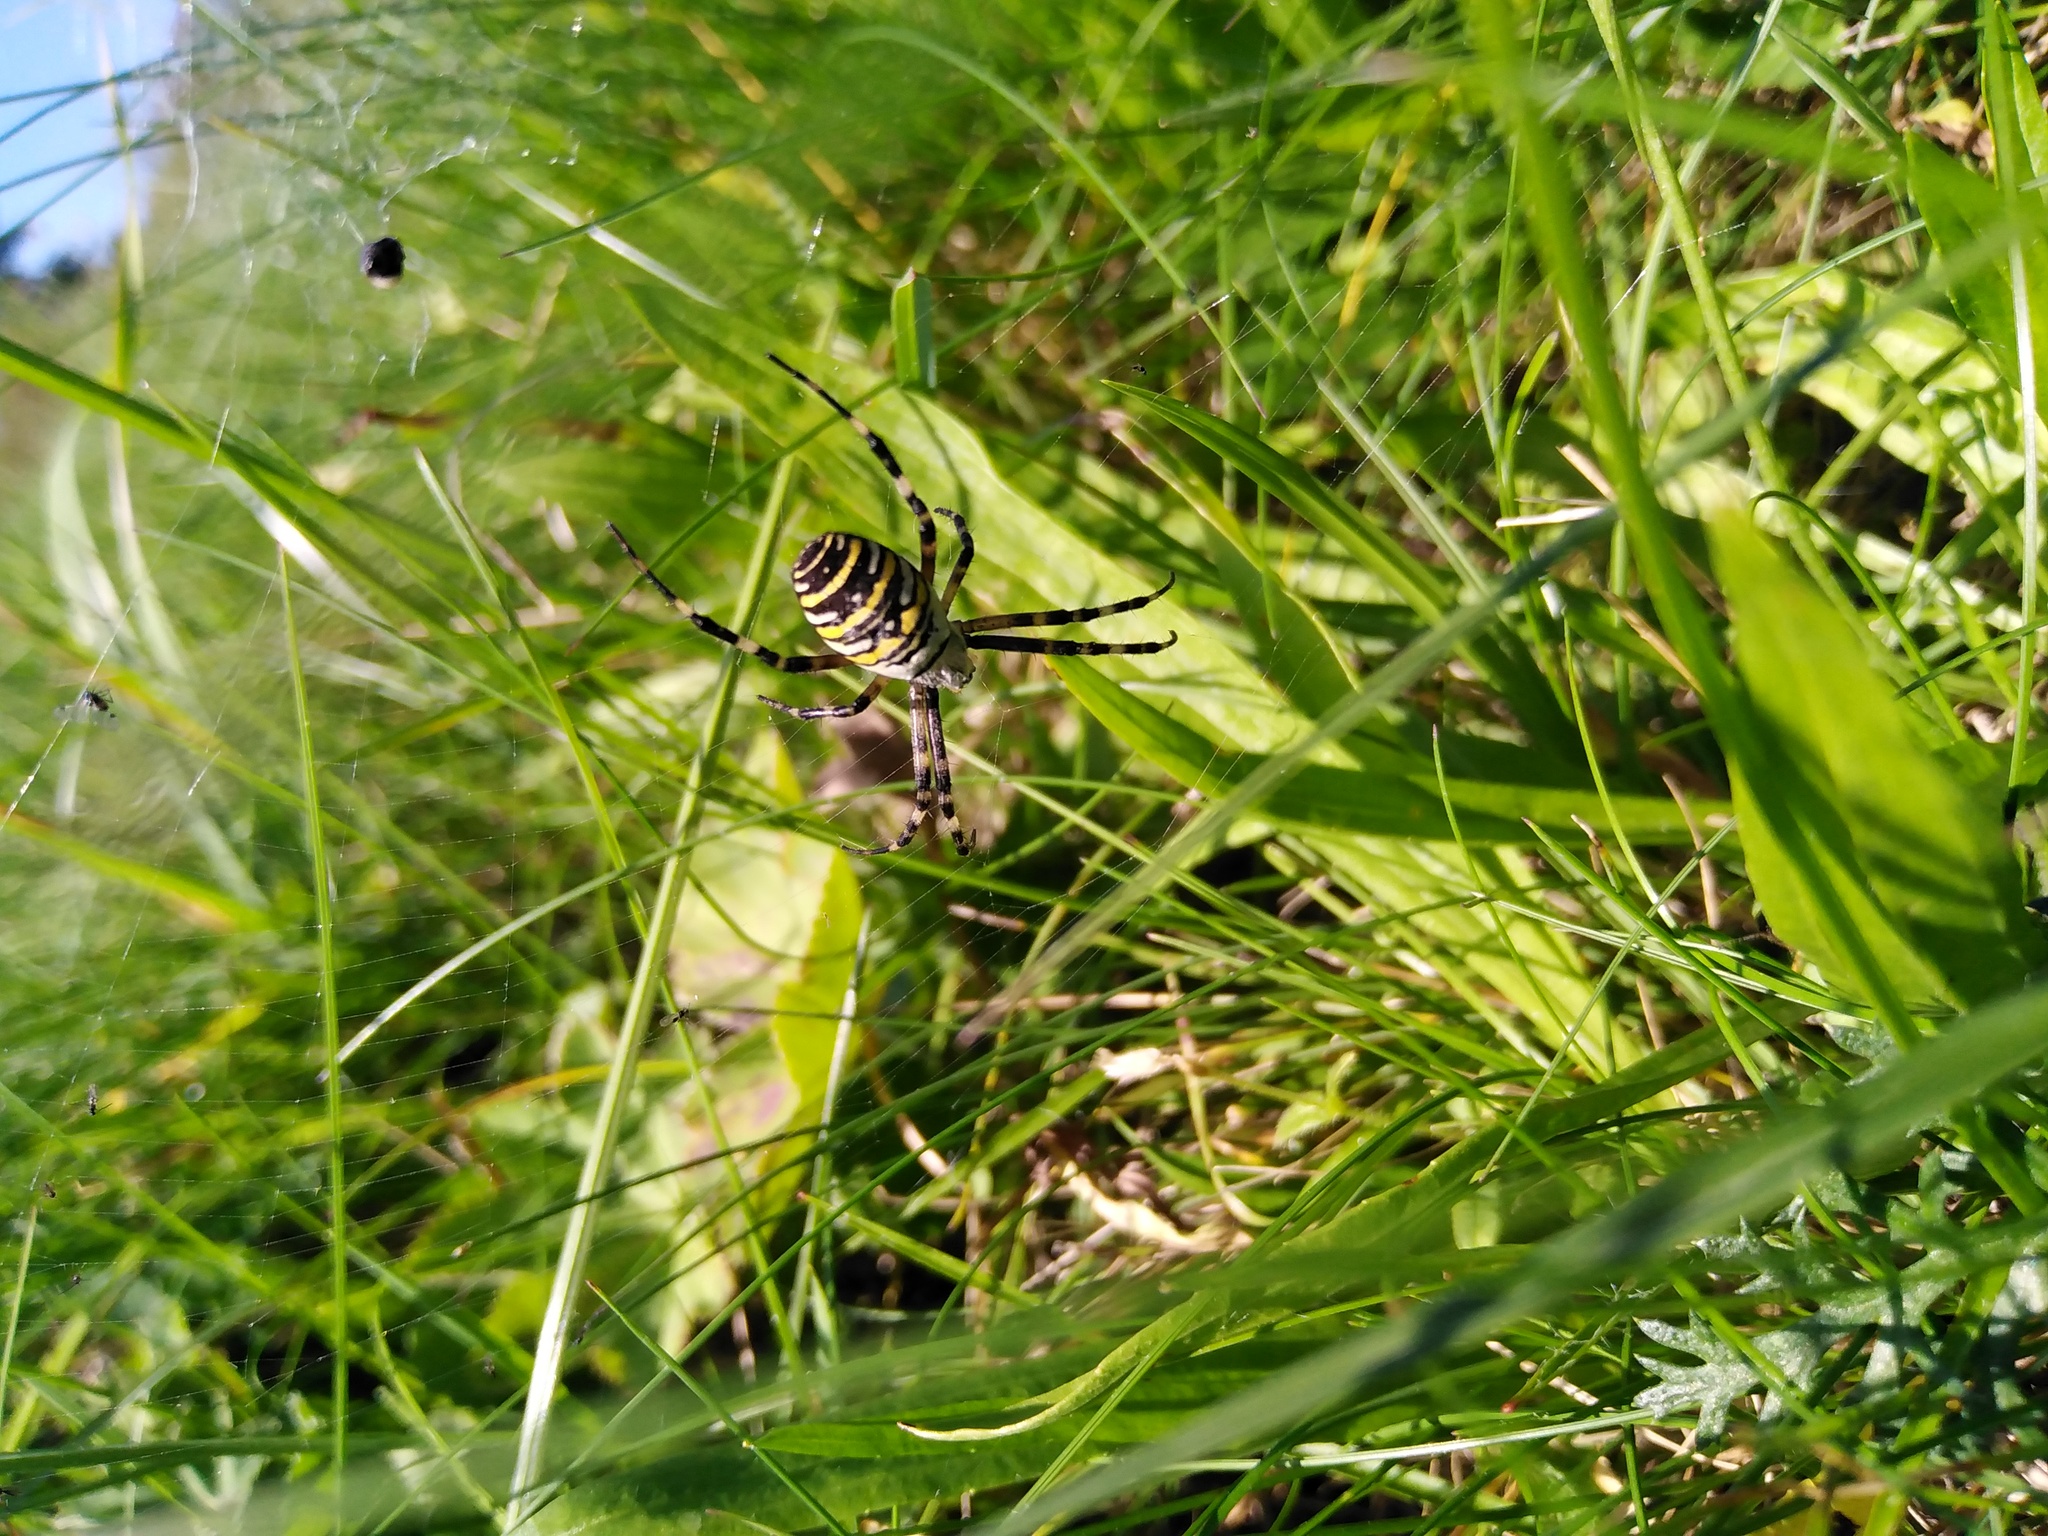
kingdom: Animalia
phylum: Arthropoda
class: Arachnida
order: Araneae
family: Araneidae
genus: Argiope
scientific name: Argiope bruennichi
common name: Wasp spider
